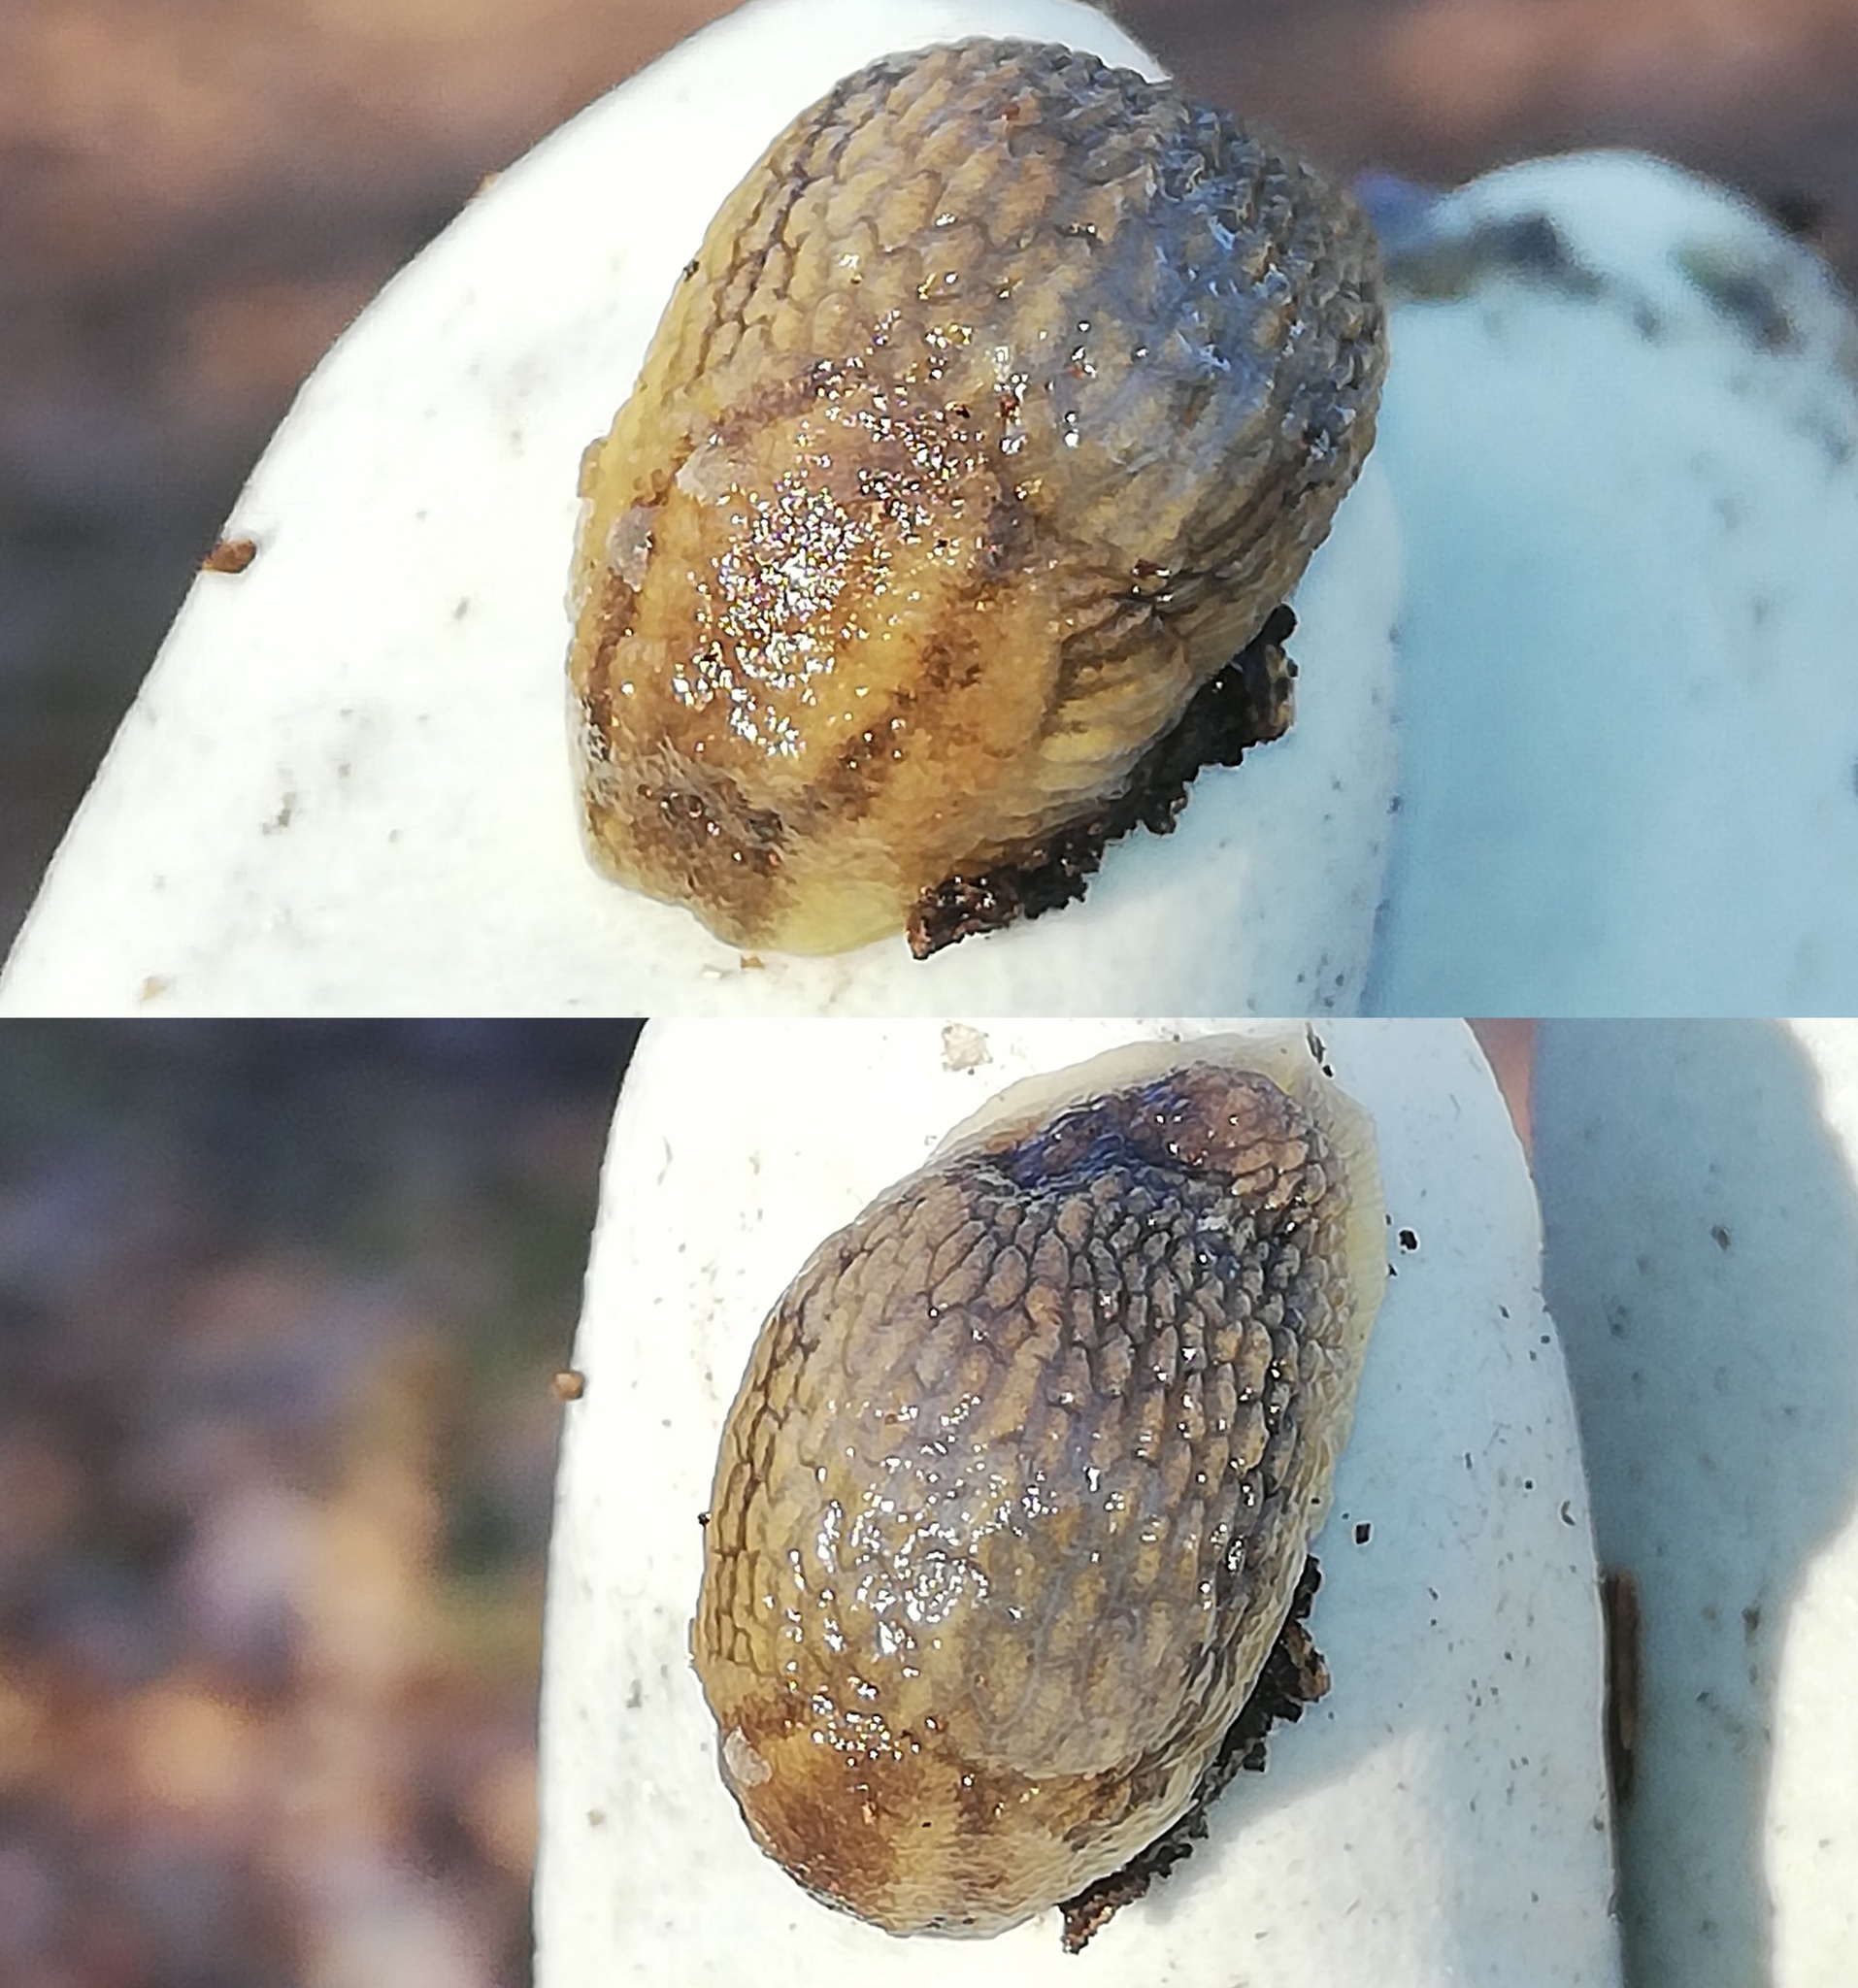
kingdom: Animalia
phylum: Mollusca
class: Gastropoda
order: Stylommatophora
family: Arionidae
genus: Arion
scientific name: Arion fasciatus
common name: Orange-banded arion
